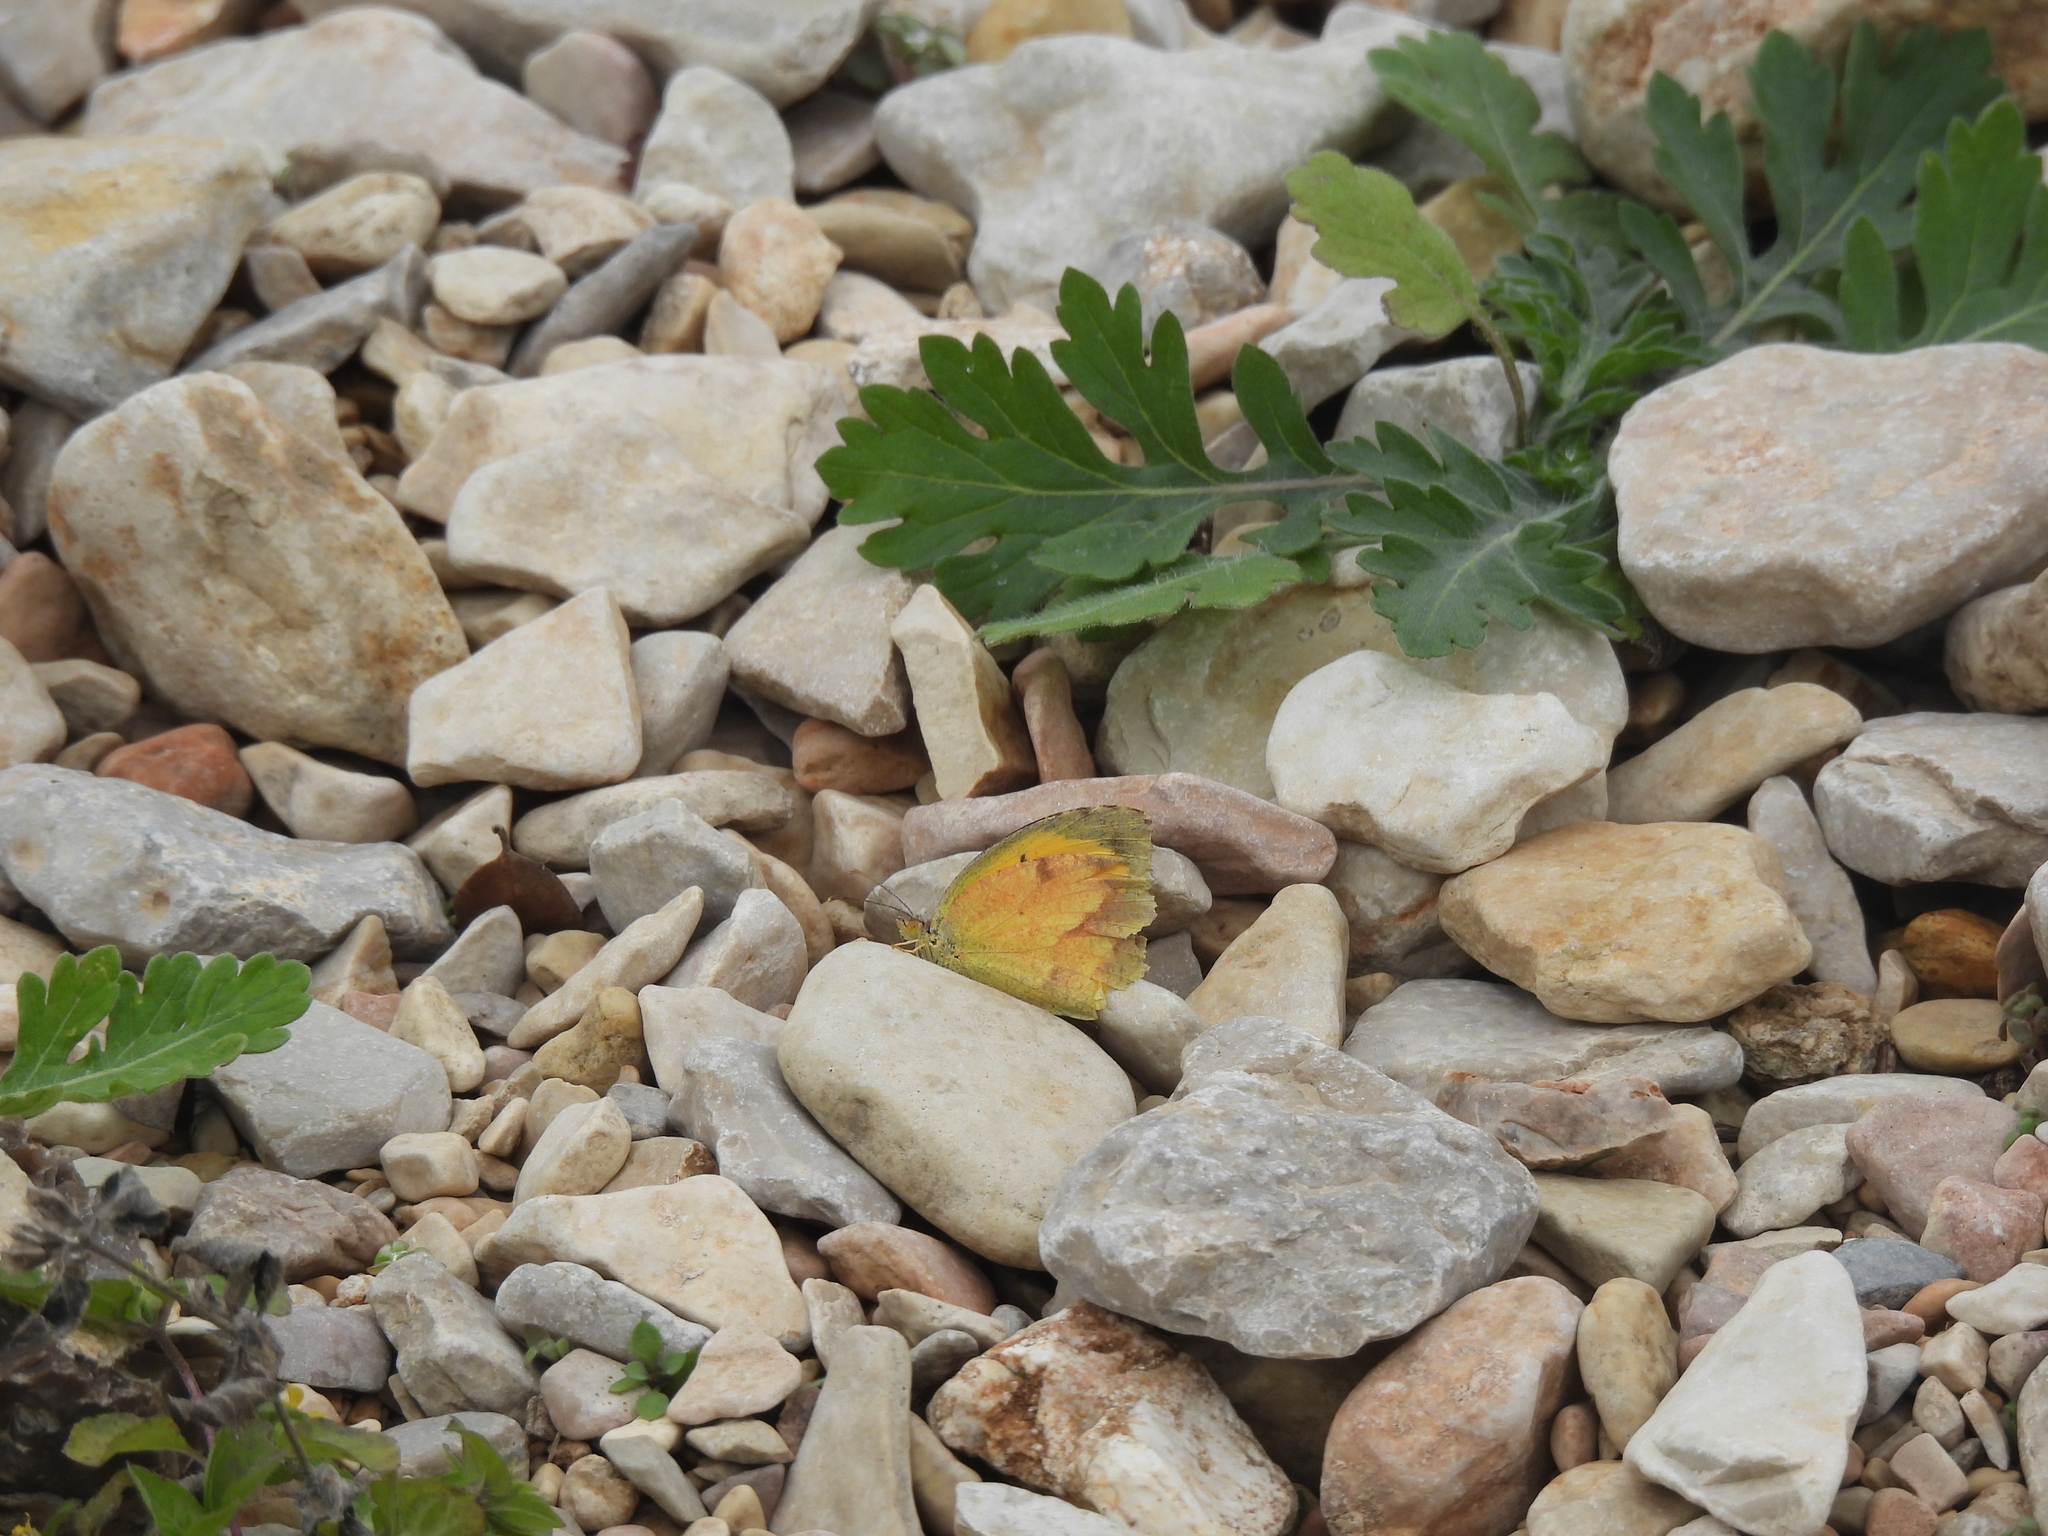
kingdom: Animalia
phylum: Arthropoda
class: Insecta
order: Lepidoptera
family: Pieridae
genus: Abaeis
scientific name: Abaeis nicippe
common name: Sleepy orange
